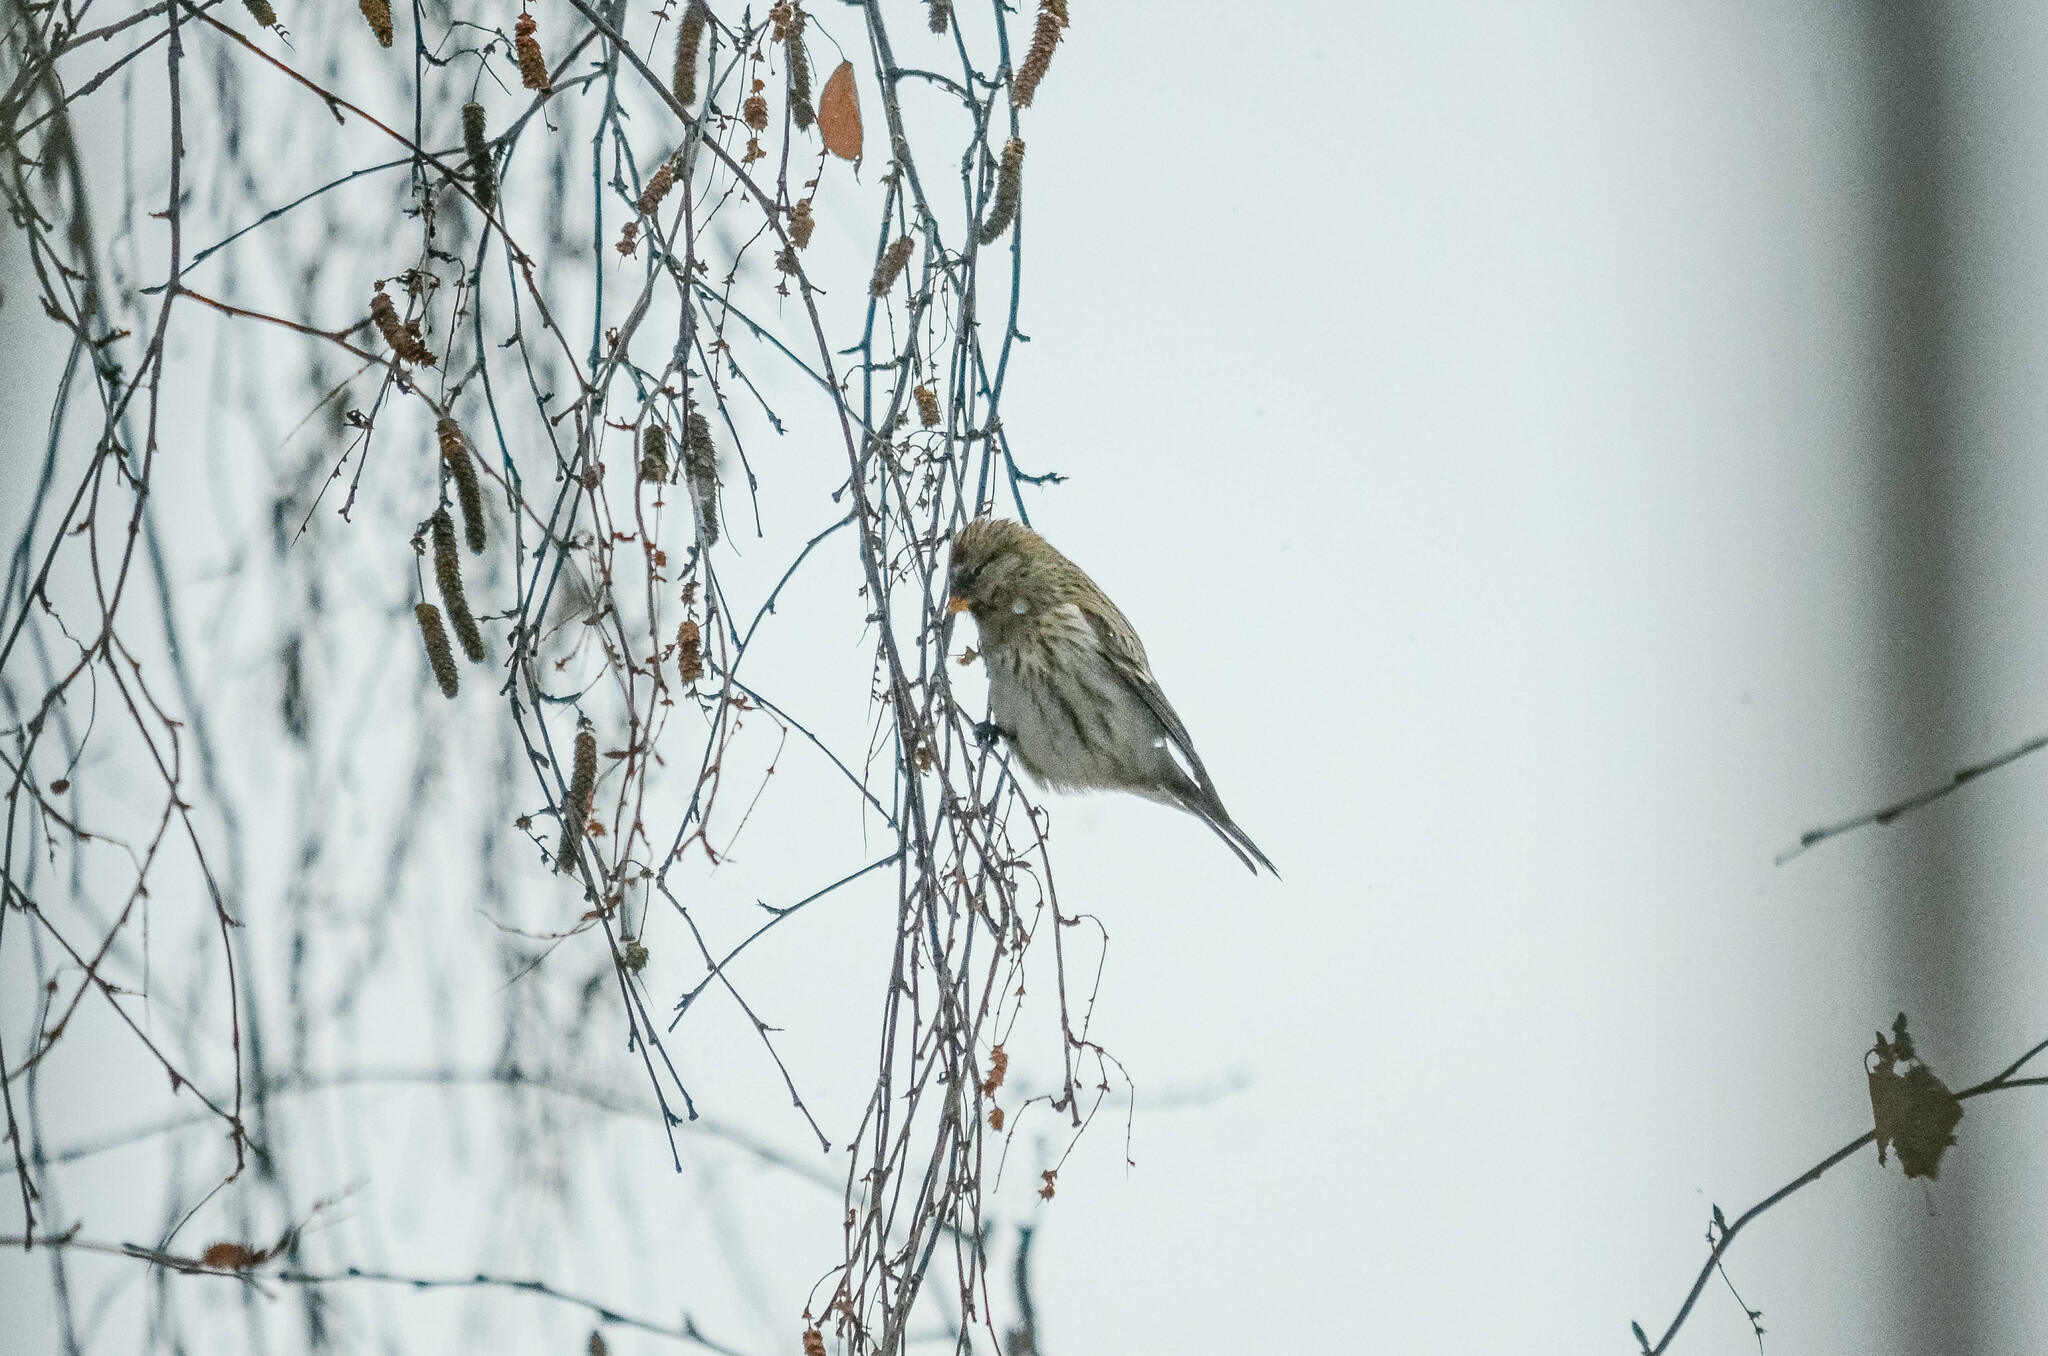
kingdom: Animalia
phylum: Chordata
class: Aves
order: Passeriformes
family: Fringillidae
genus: Acanthis
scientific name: Acanthis flammea
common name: Common redpoll
